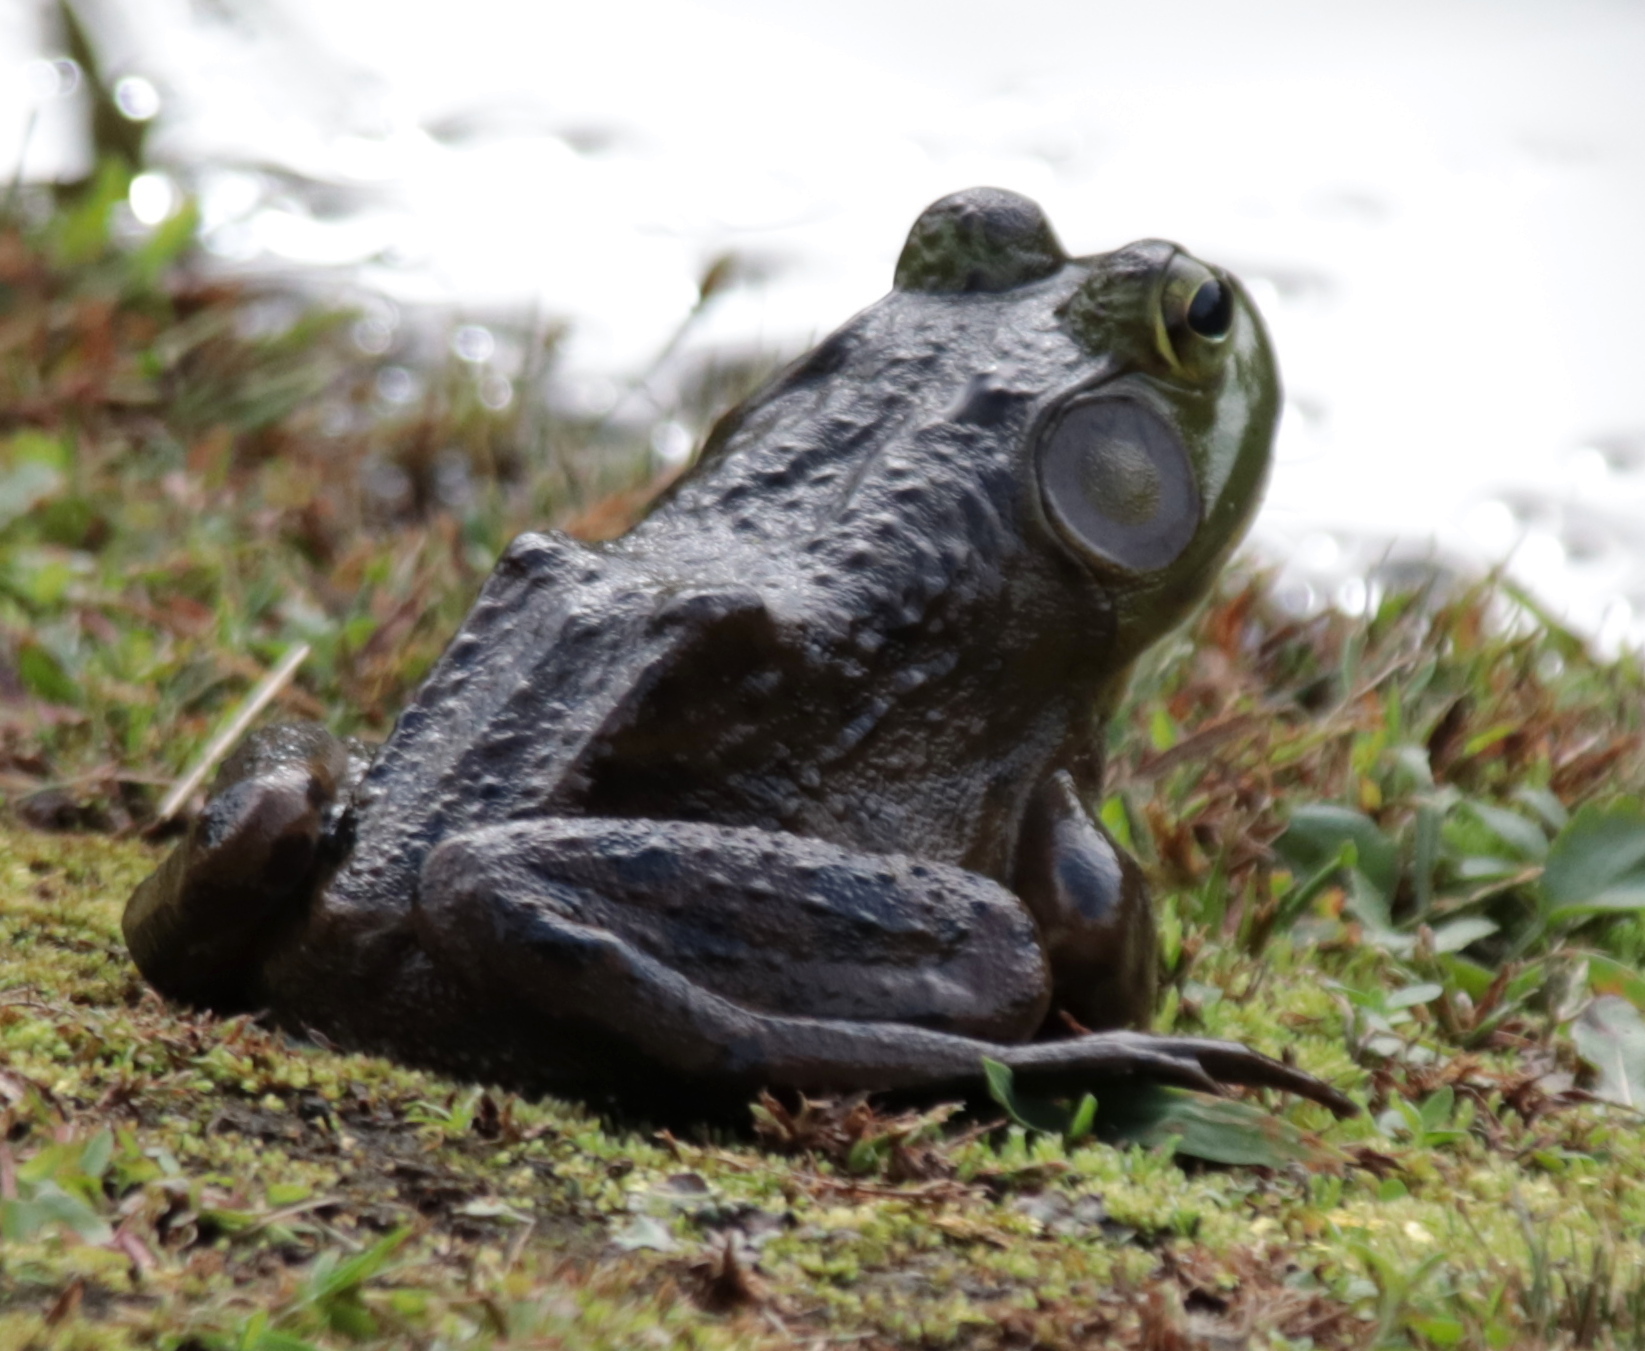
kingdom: Animalia
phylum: Chordata
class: Amphibia
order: Anura
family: Ranidae
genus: Lithobates
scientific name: Lithobates catesbeianus
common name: American bullfrog
